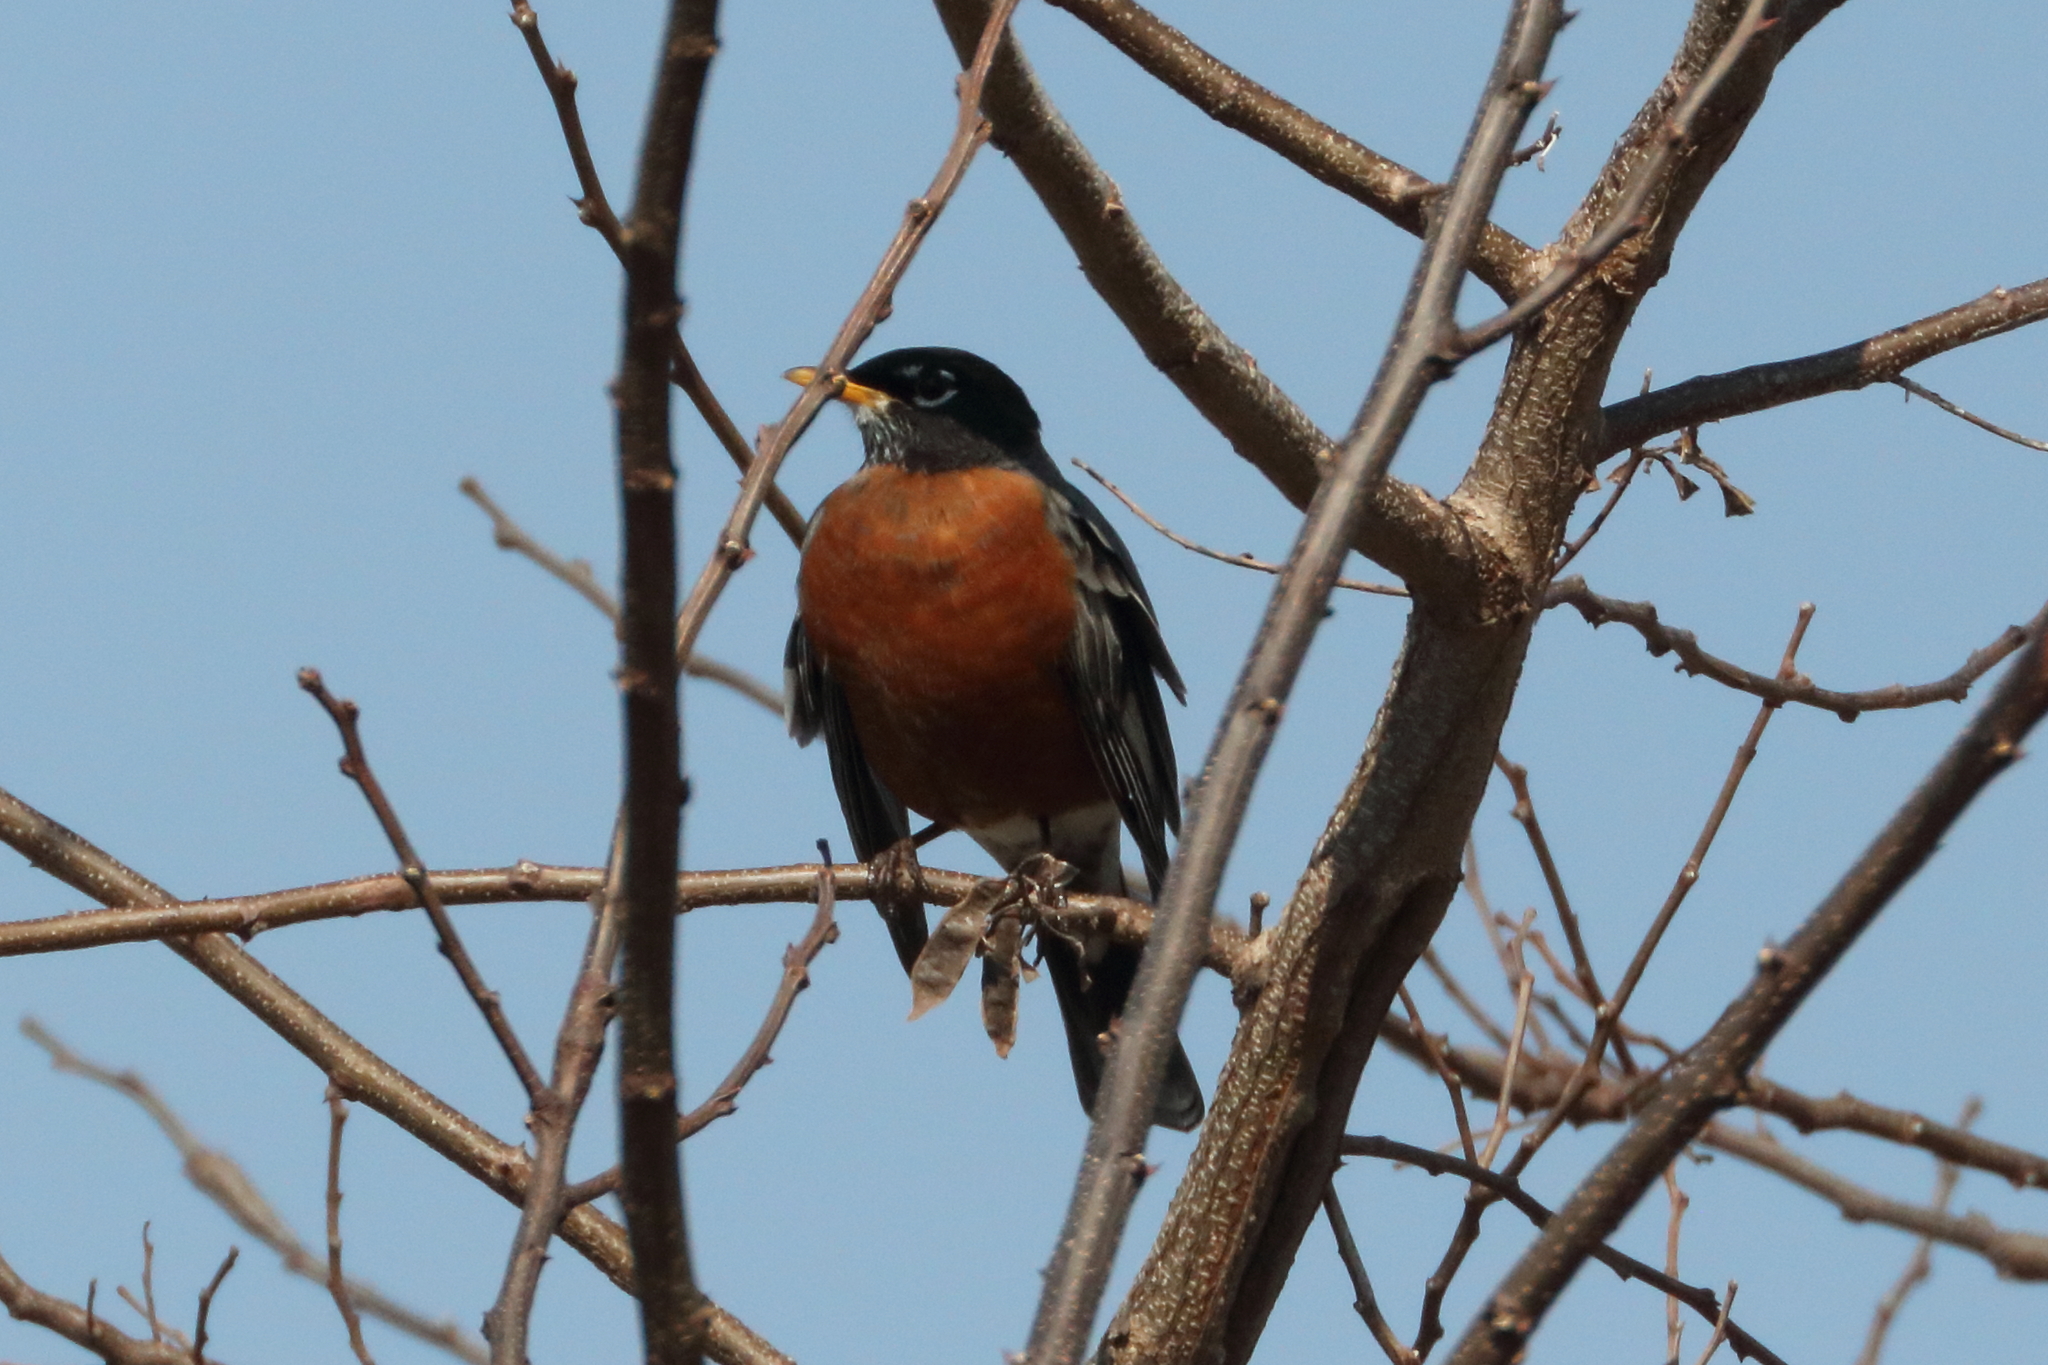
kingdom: Animalia
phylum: Chordata
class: Aves
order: Passeriformes
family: Turdidae
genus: Turdus
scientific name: Turdus migratorius
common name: American robin
